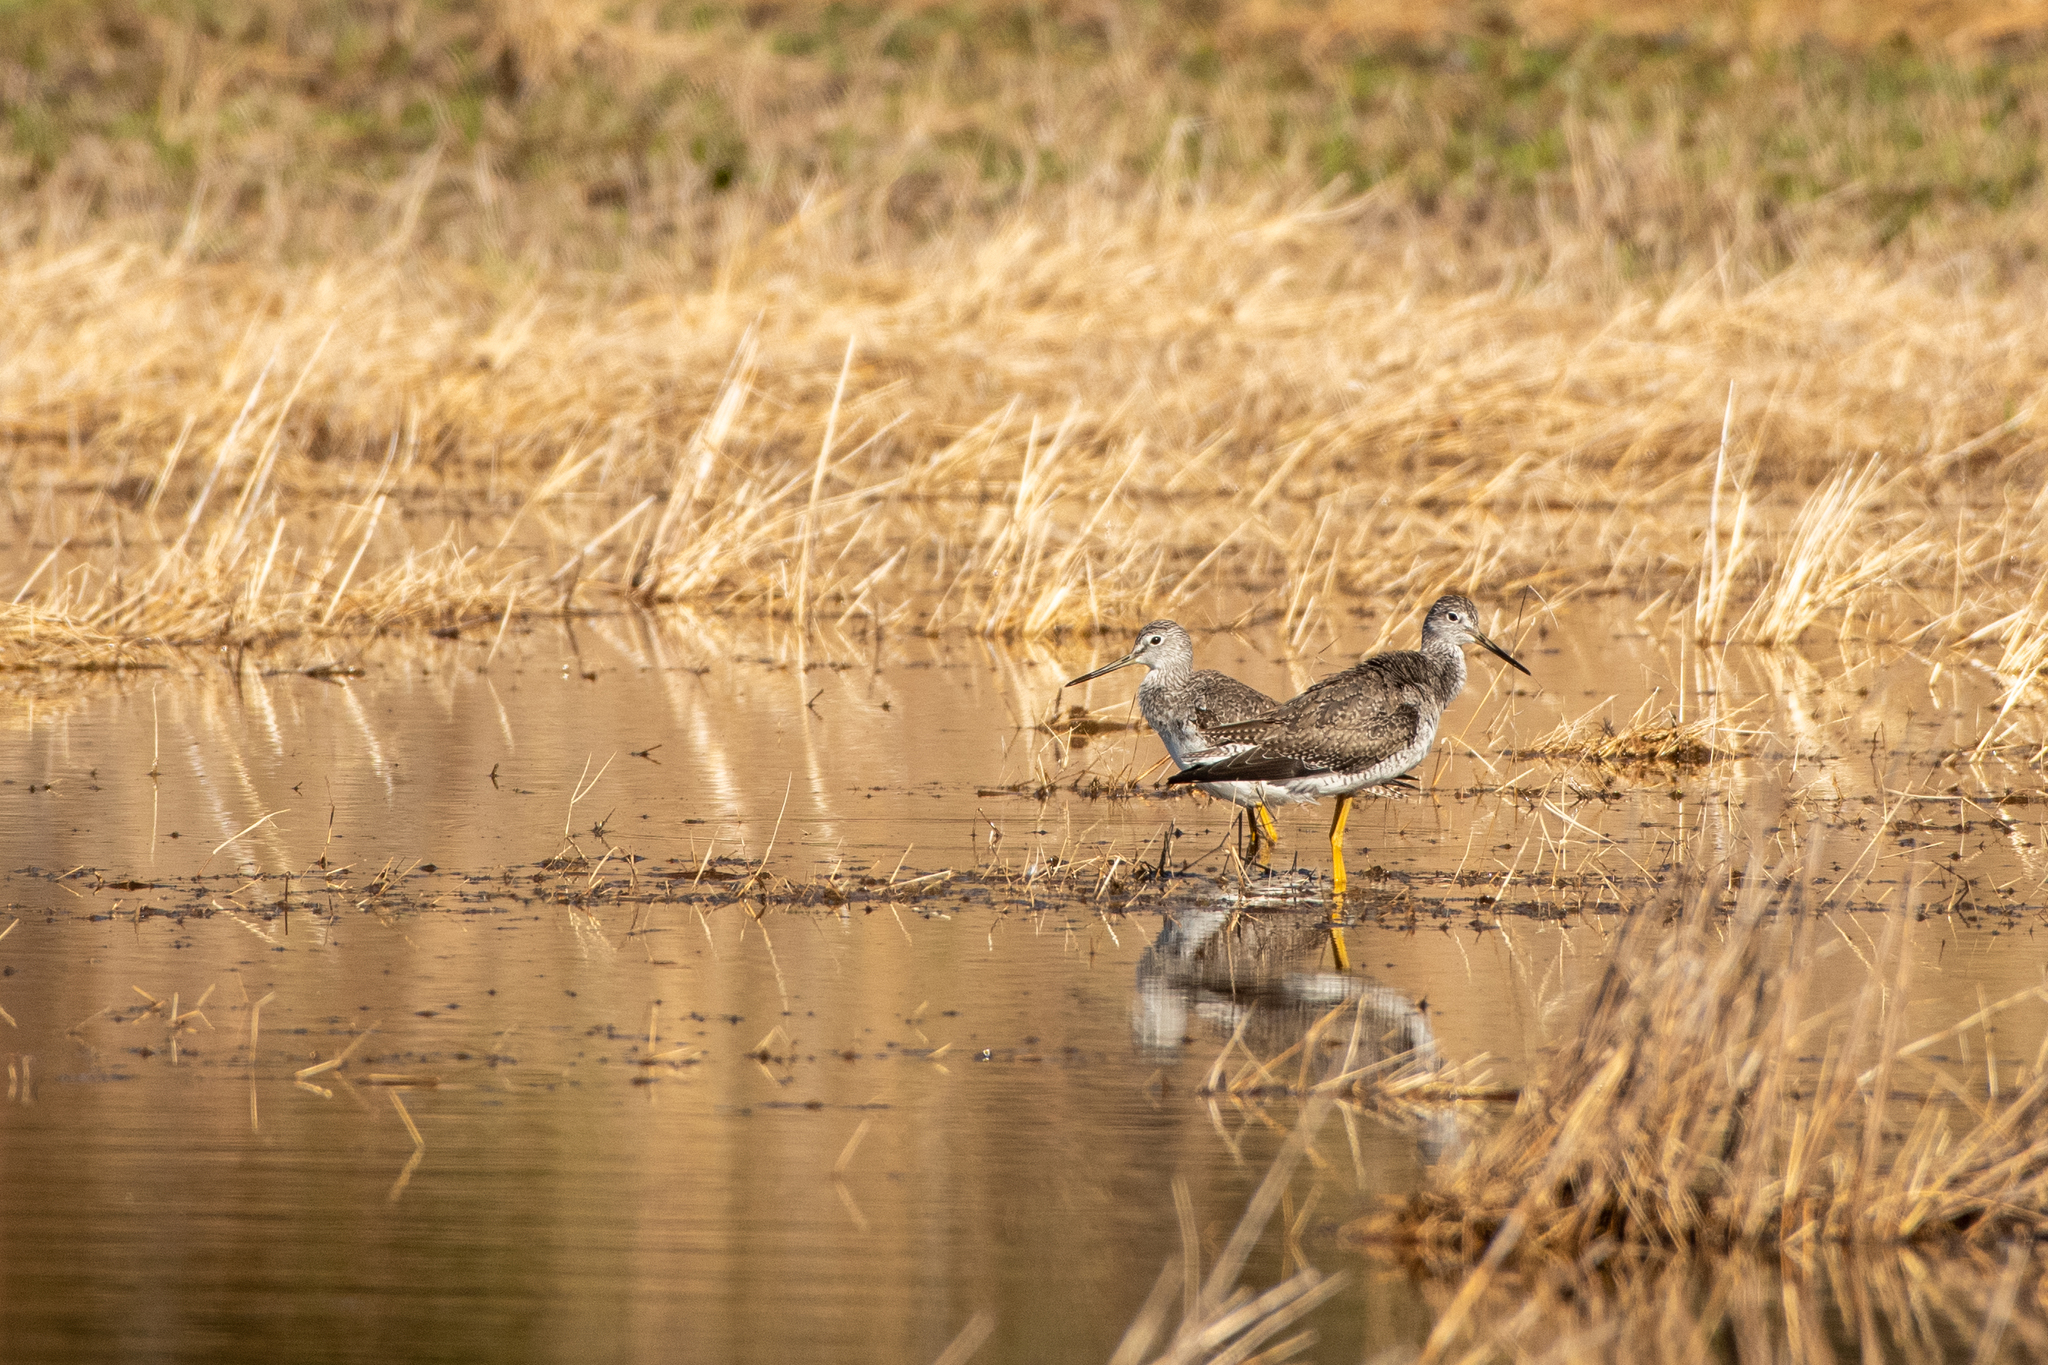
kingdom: Animalia
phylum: Chordata
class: Aves
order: Charadriiformes
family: Scolopacidae
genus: Tringa
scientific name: Tringa melanoleuca
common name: Greater yellowlegs
